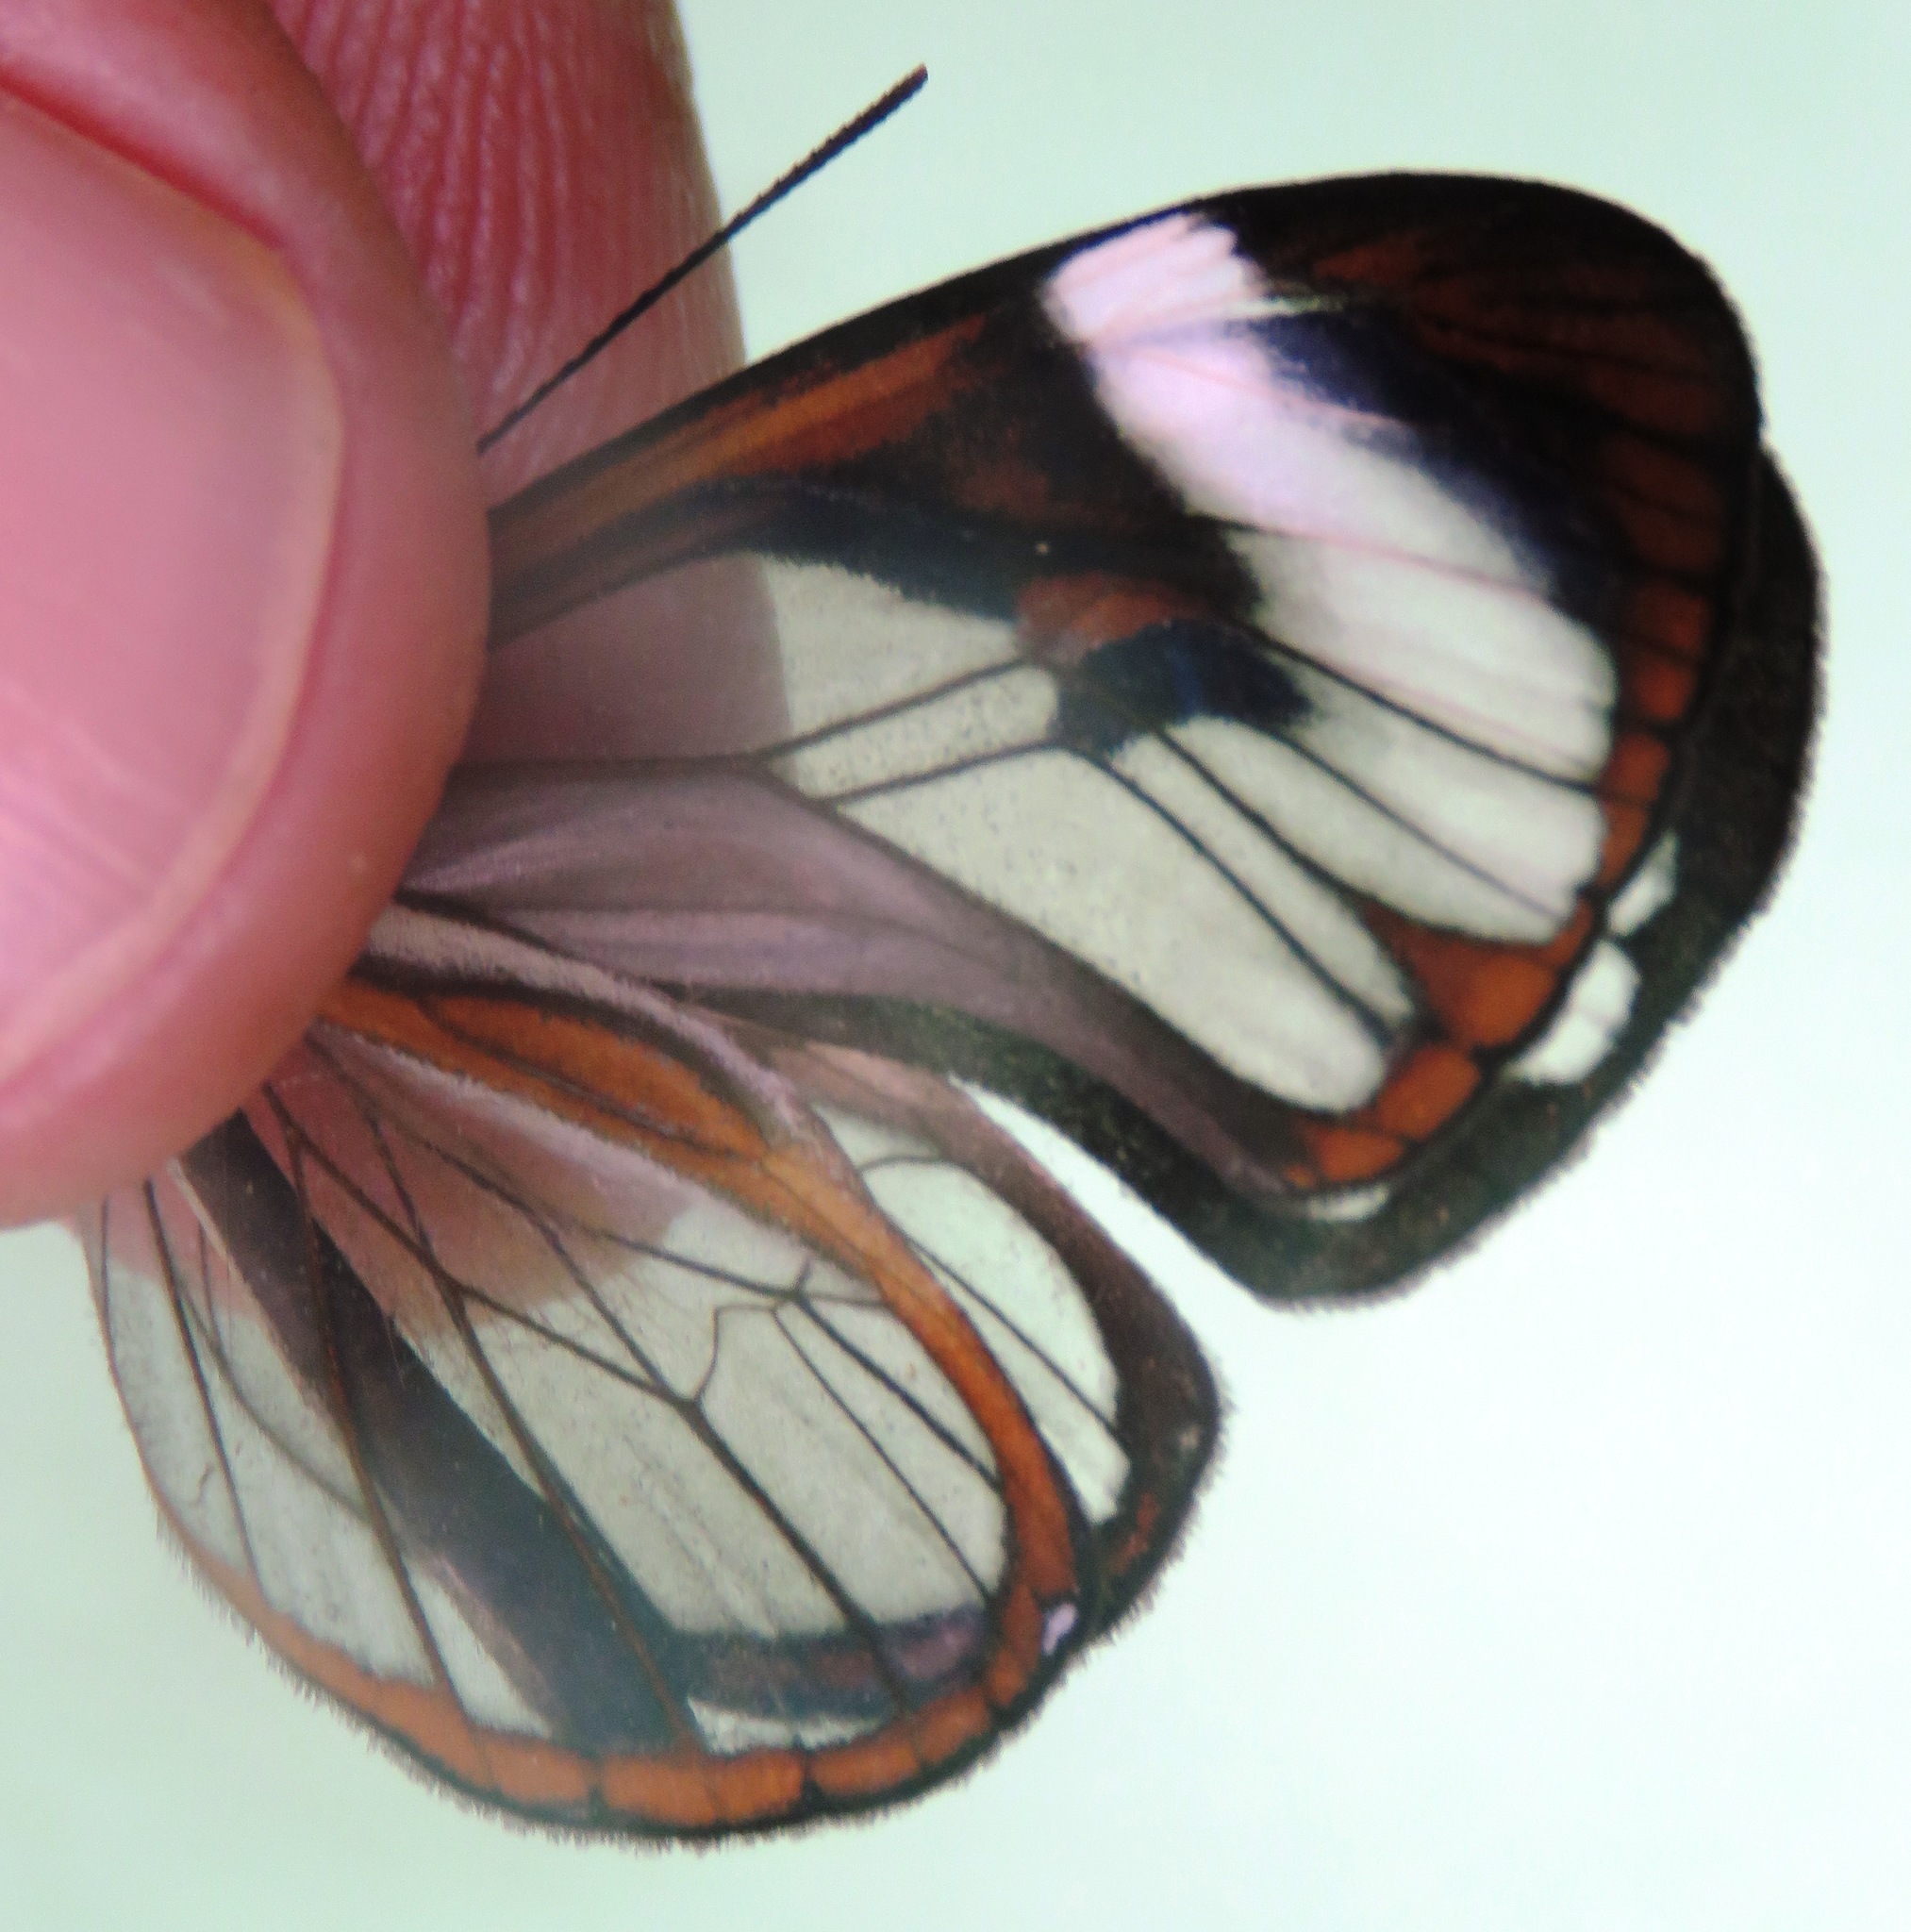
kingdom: Animalia
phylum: Arthropoda
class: Insecta
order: Lepidoptera
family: Nymphalidae
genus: Ithomia
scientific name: Ithomia patilla
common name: Patilla clearwing
